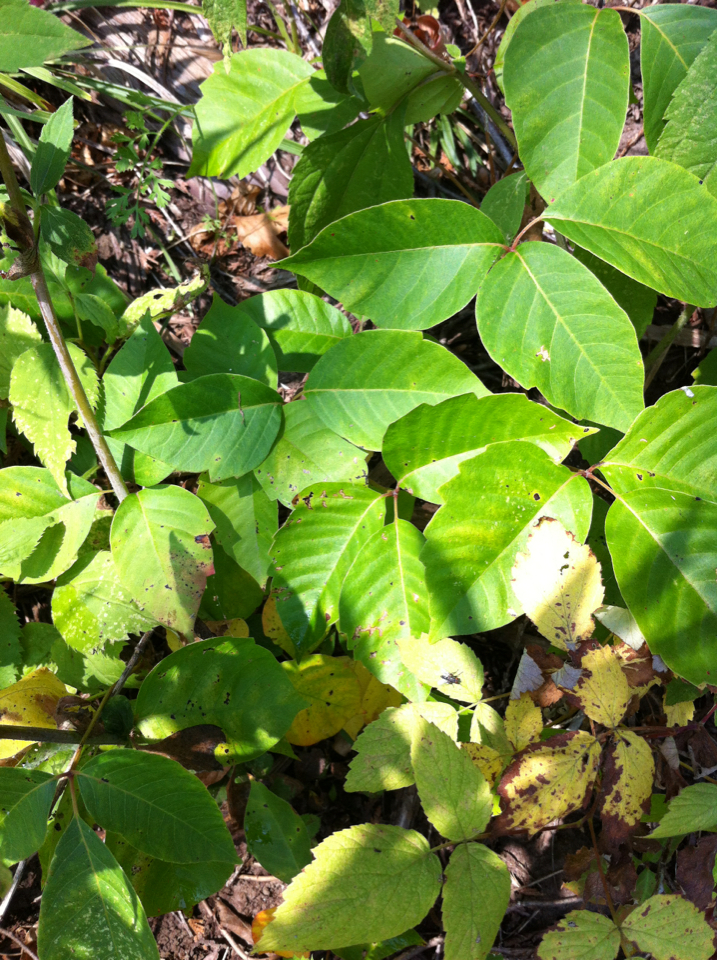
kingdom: Plantae
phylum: Tracheophyta
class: Magnoliopsida
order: Sapindales
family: Anacardiaceae
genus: Toxicodendron
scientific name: Toxicodendron radicans
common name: Poison ivy
